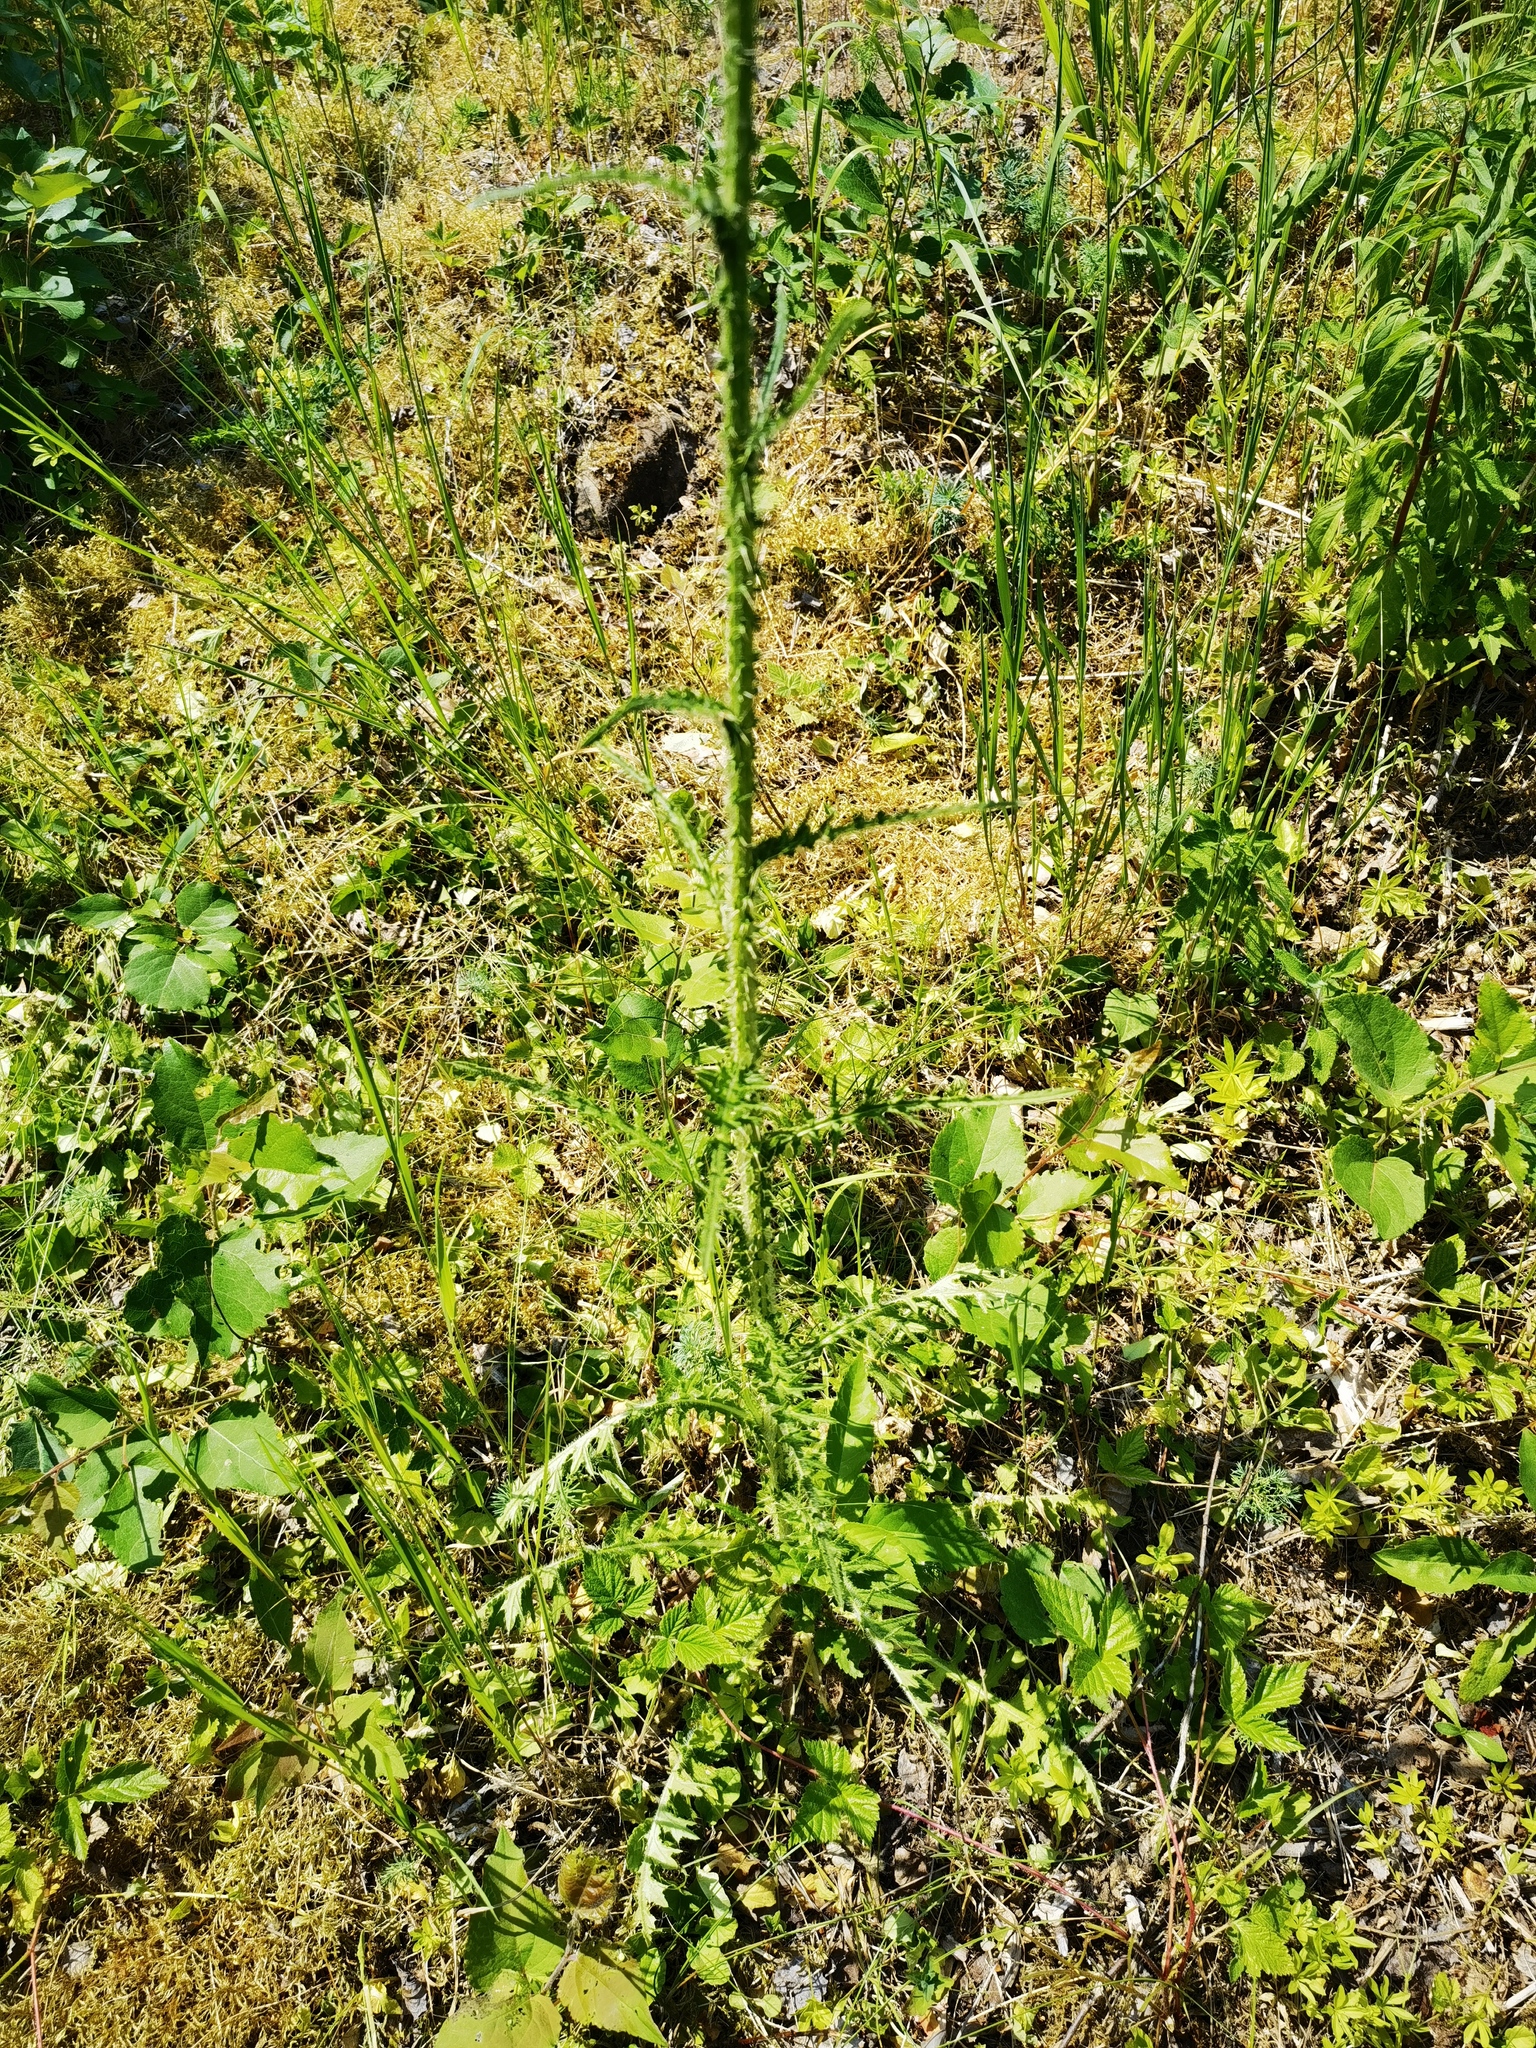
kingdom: Plantae
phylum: Tracheophyta
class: Magnoliopsida
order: Asterales
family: Asteraceae
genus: Cirsium
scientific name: Cirsium palustre
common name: Marsh thistle
